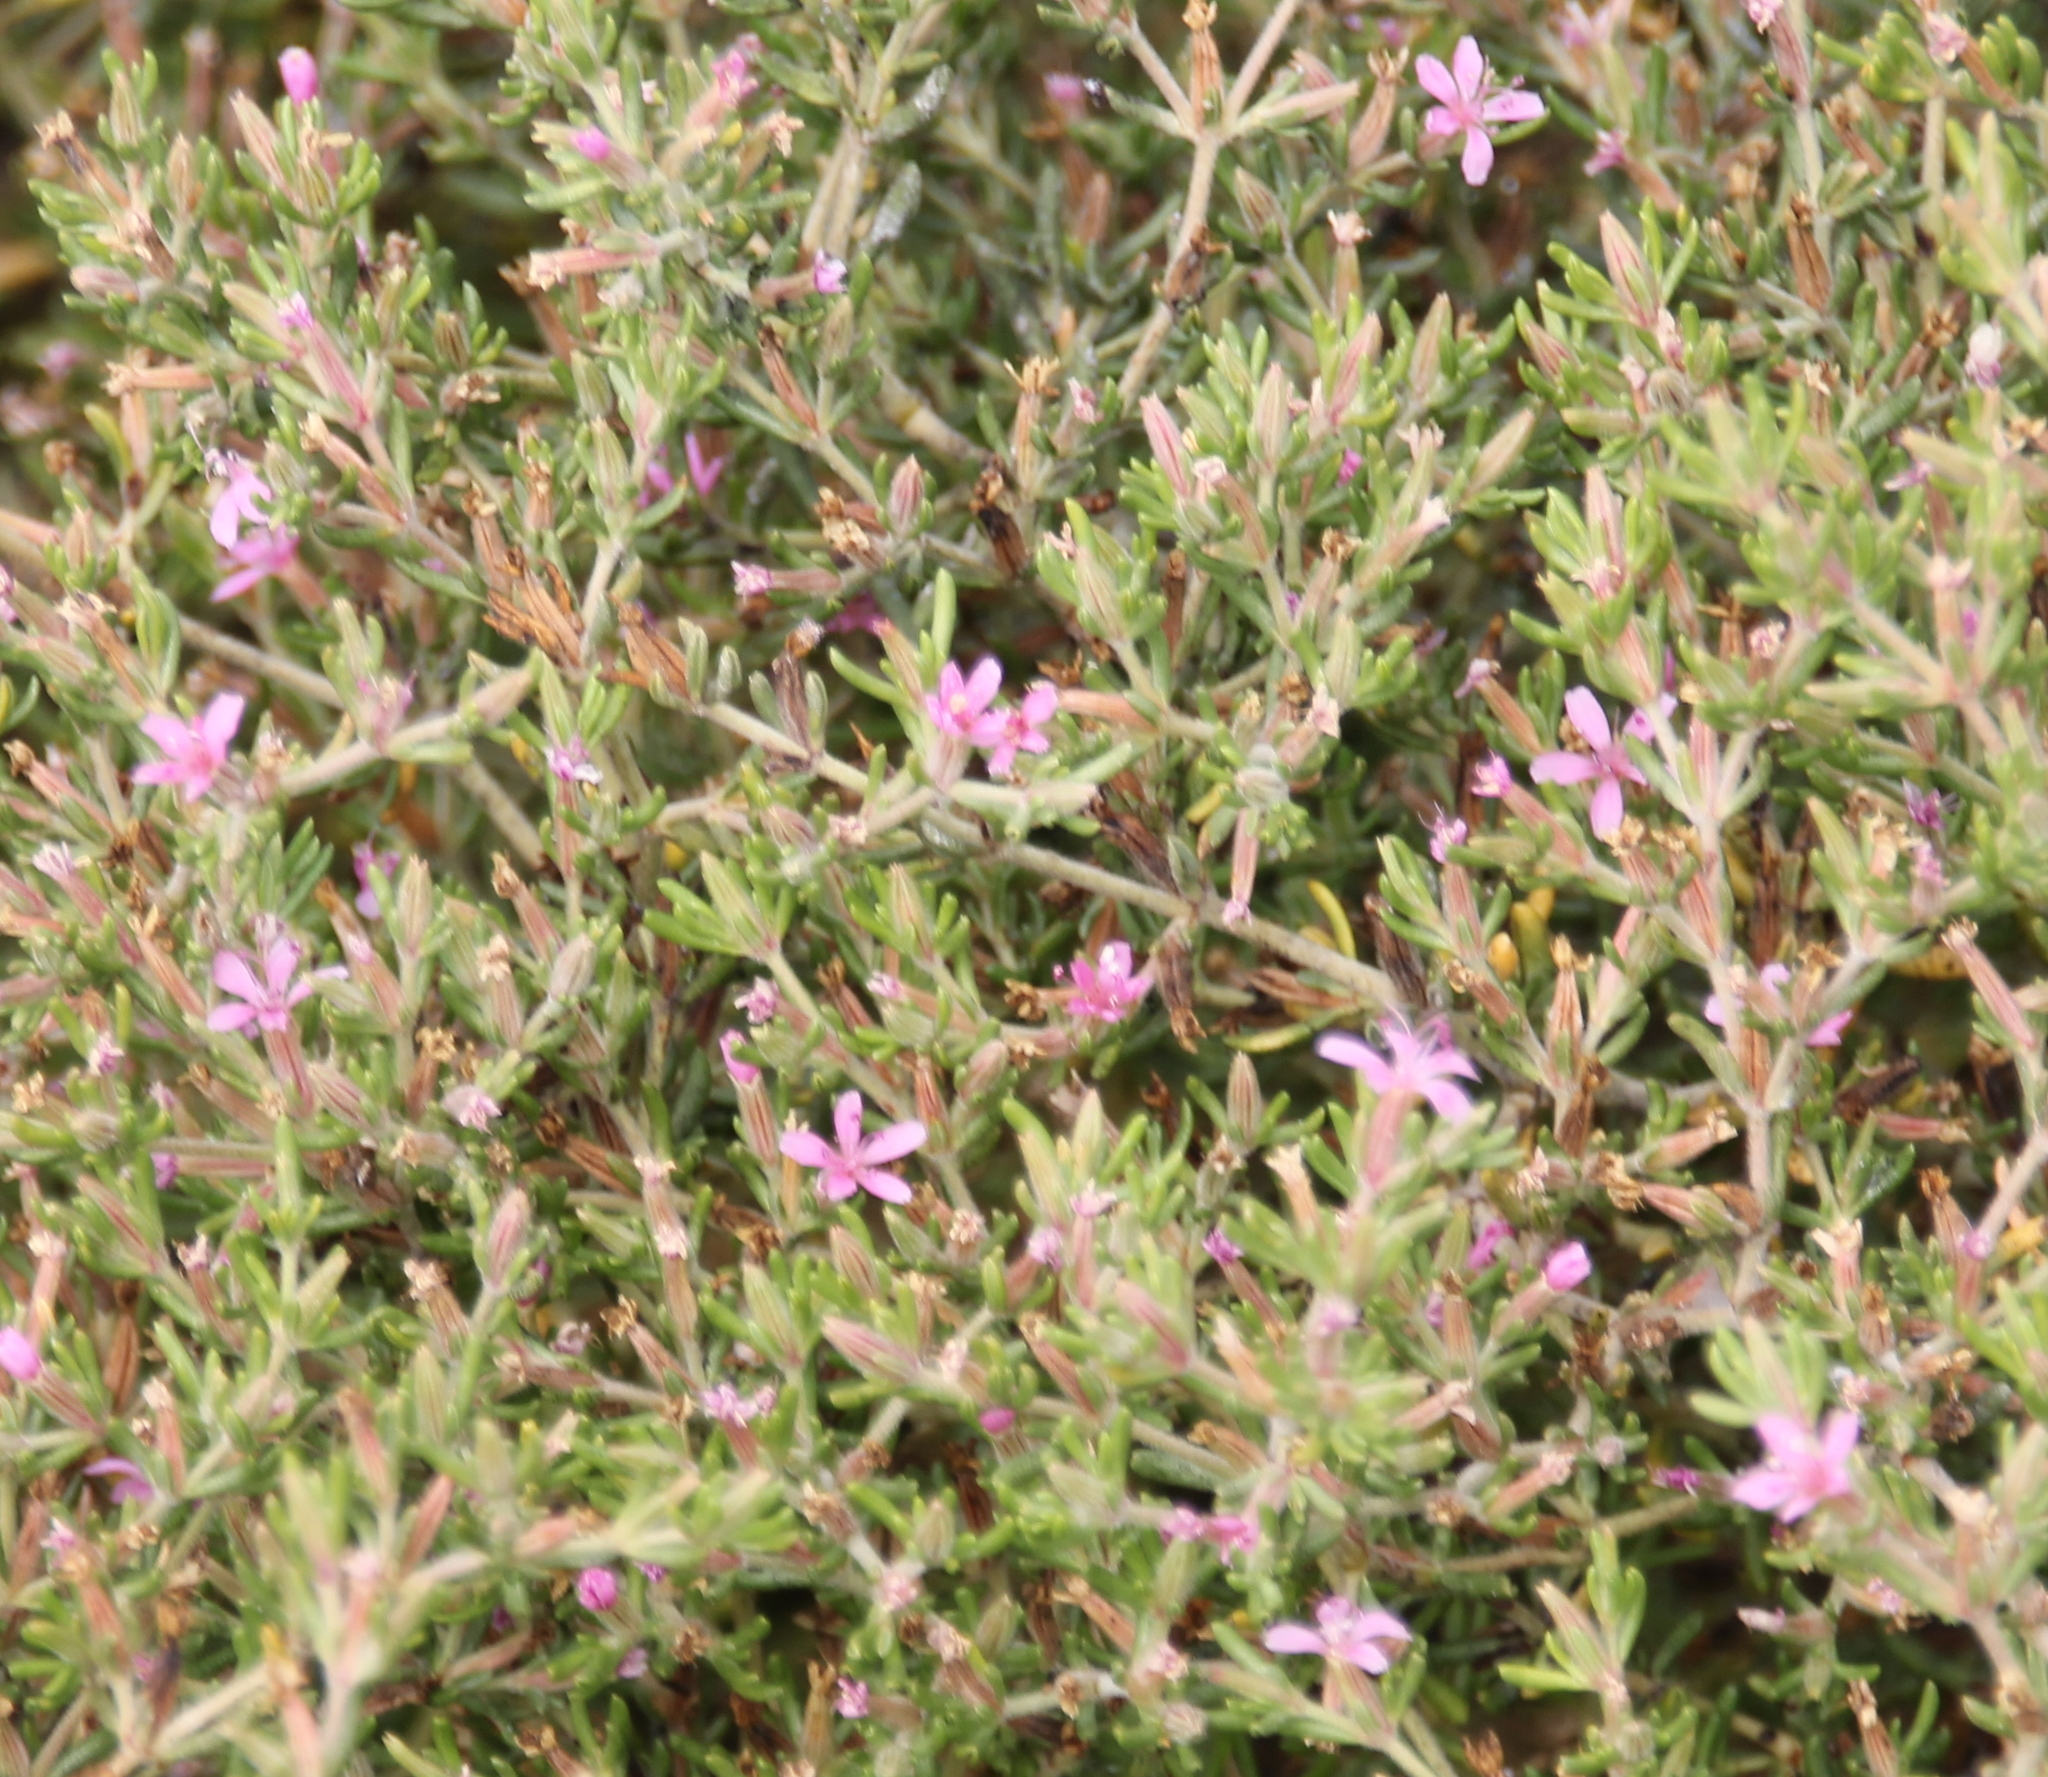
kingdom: Plantae
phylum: Tracheophyta
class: Magnoliopsida
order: Caryophyllales
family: Frankeniaceae
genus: Frankenia
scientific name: Frankenia salina
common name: Alkali seaheath
